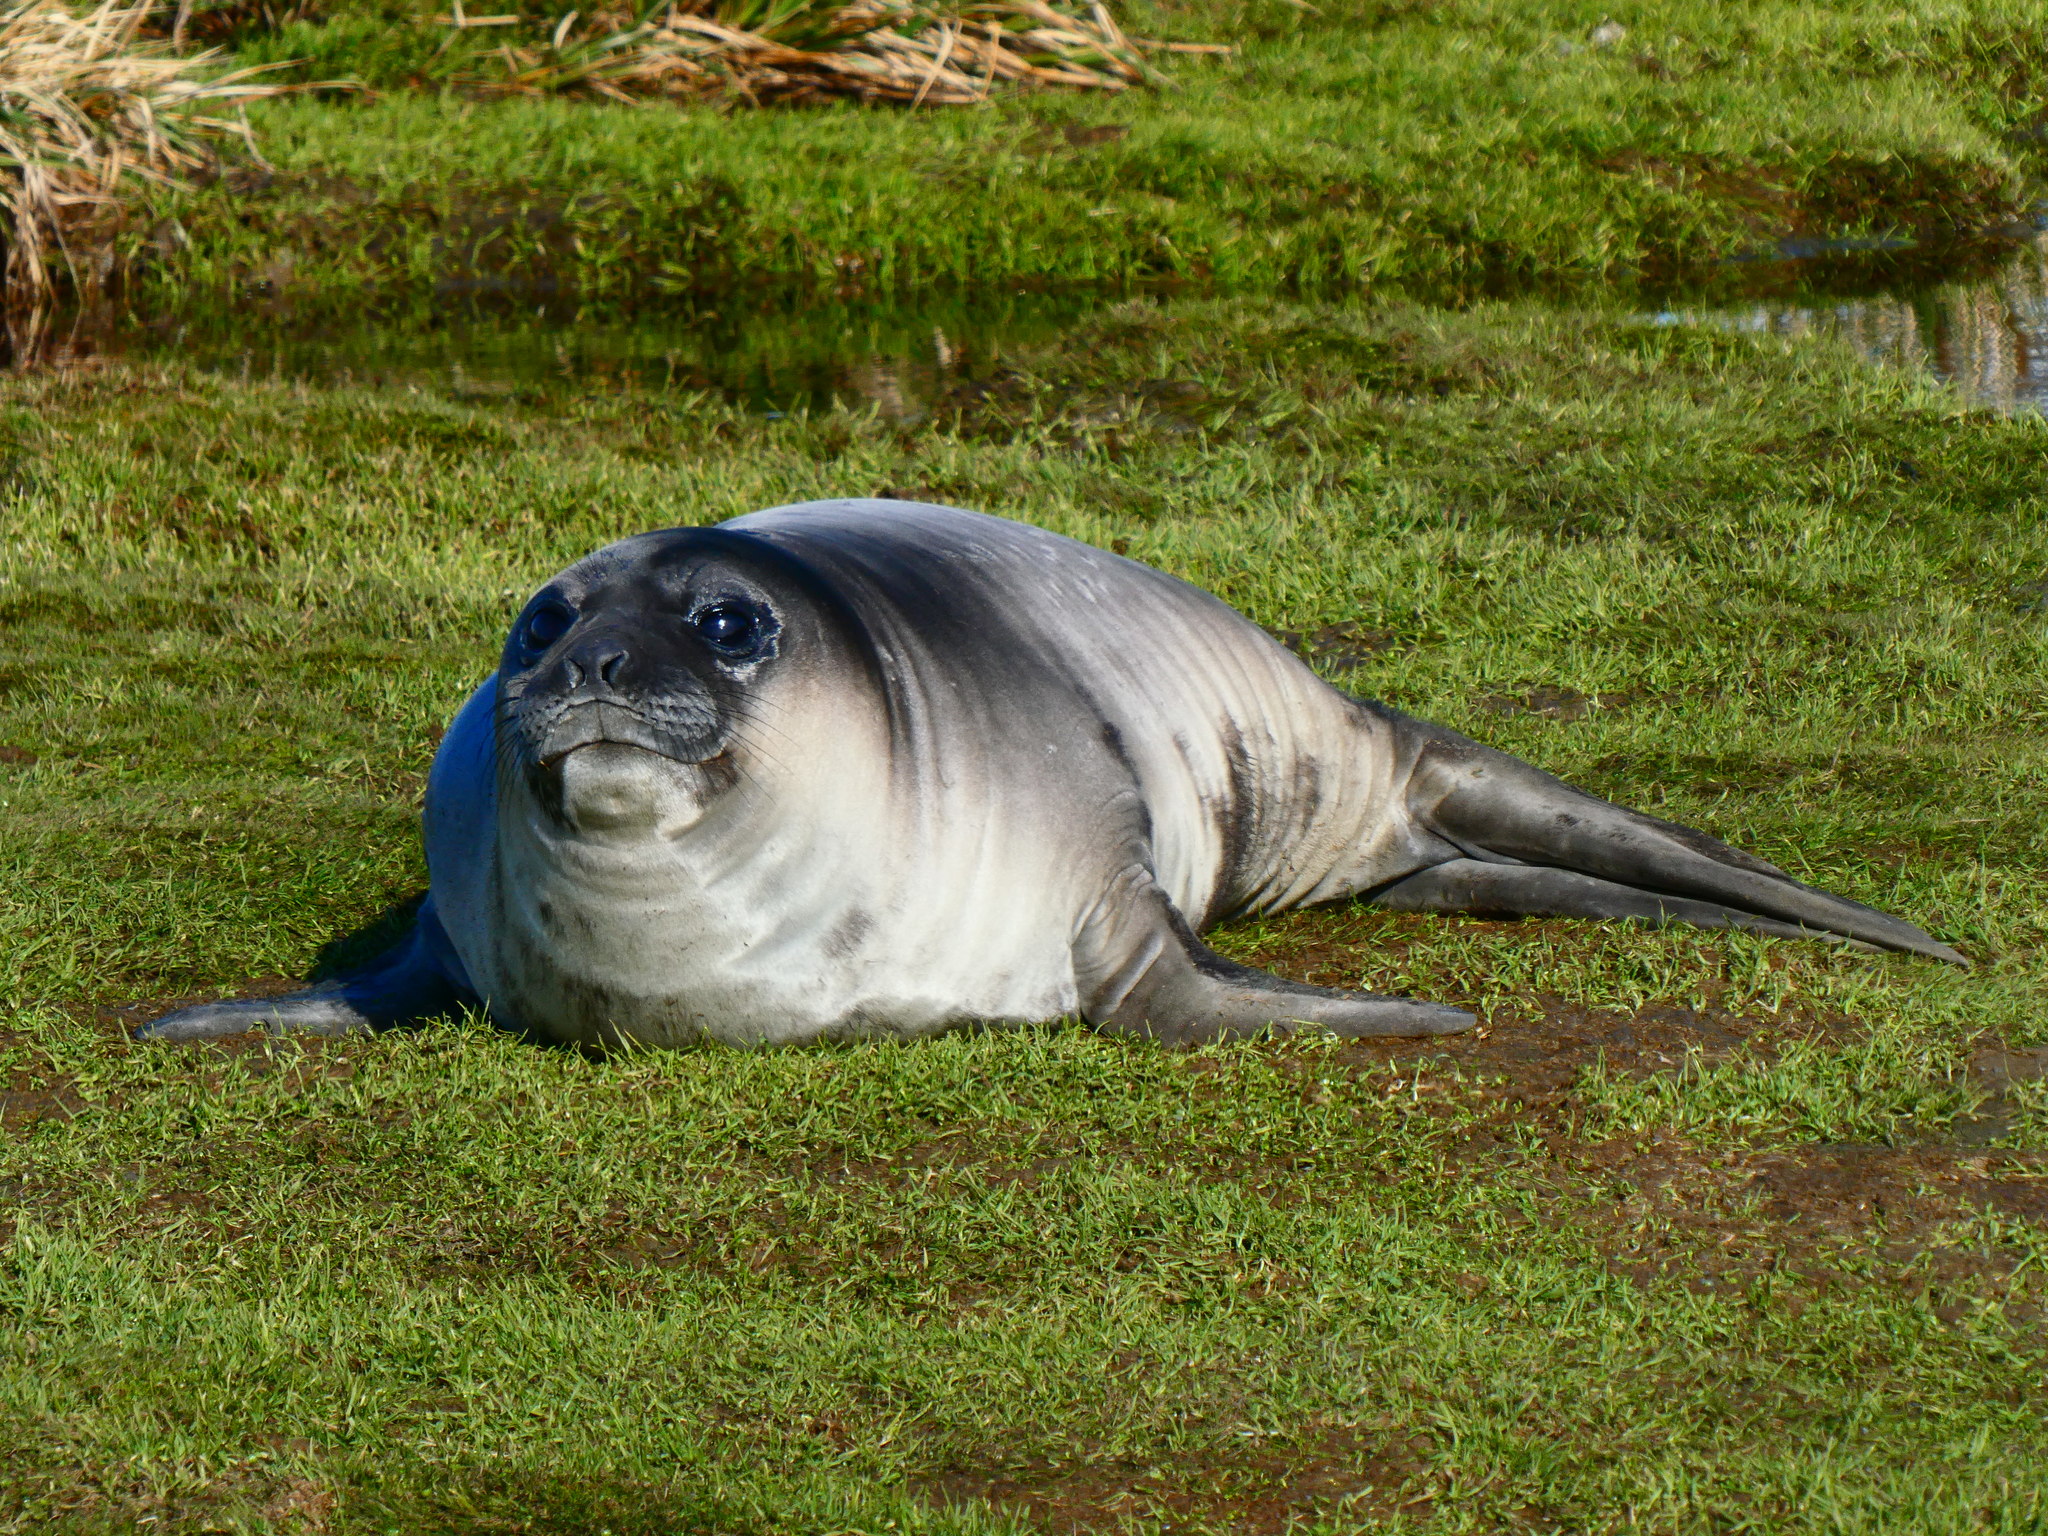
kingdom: Animalia
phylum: Chordata
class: Mammalia
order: Carnivora
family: Phocidae
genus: Mirounga
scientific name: Mirounga leonina
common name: Southern elephant seal
